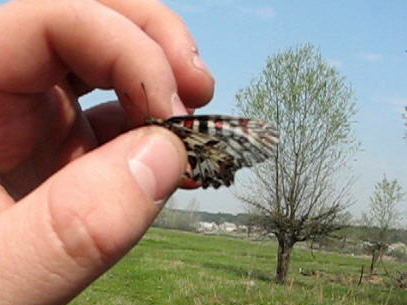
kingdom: Animalia
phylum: Arthropoda
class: Insecta
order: Lepidoptera
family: Papilionidae
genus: Zerynthia
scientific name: Zerynthia polyxena
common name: Southern festoon
